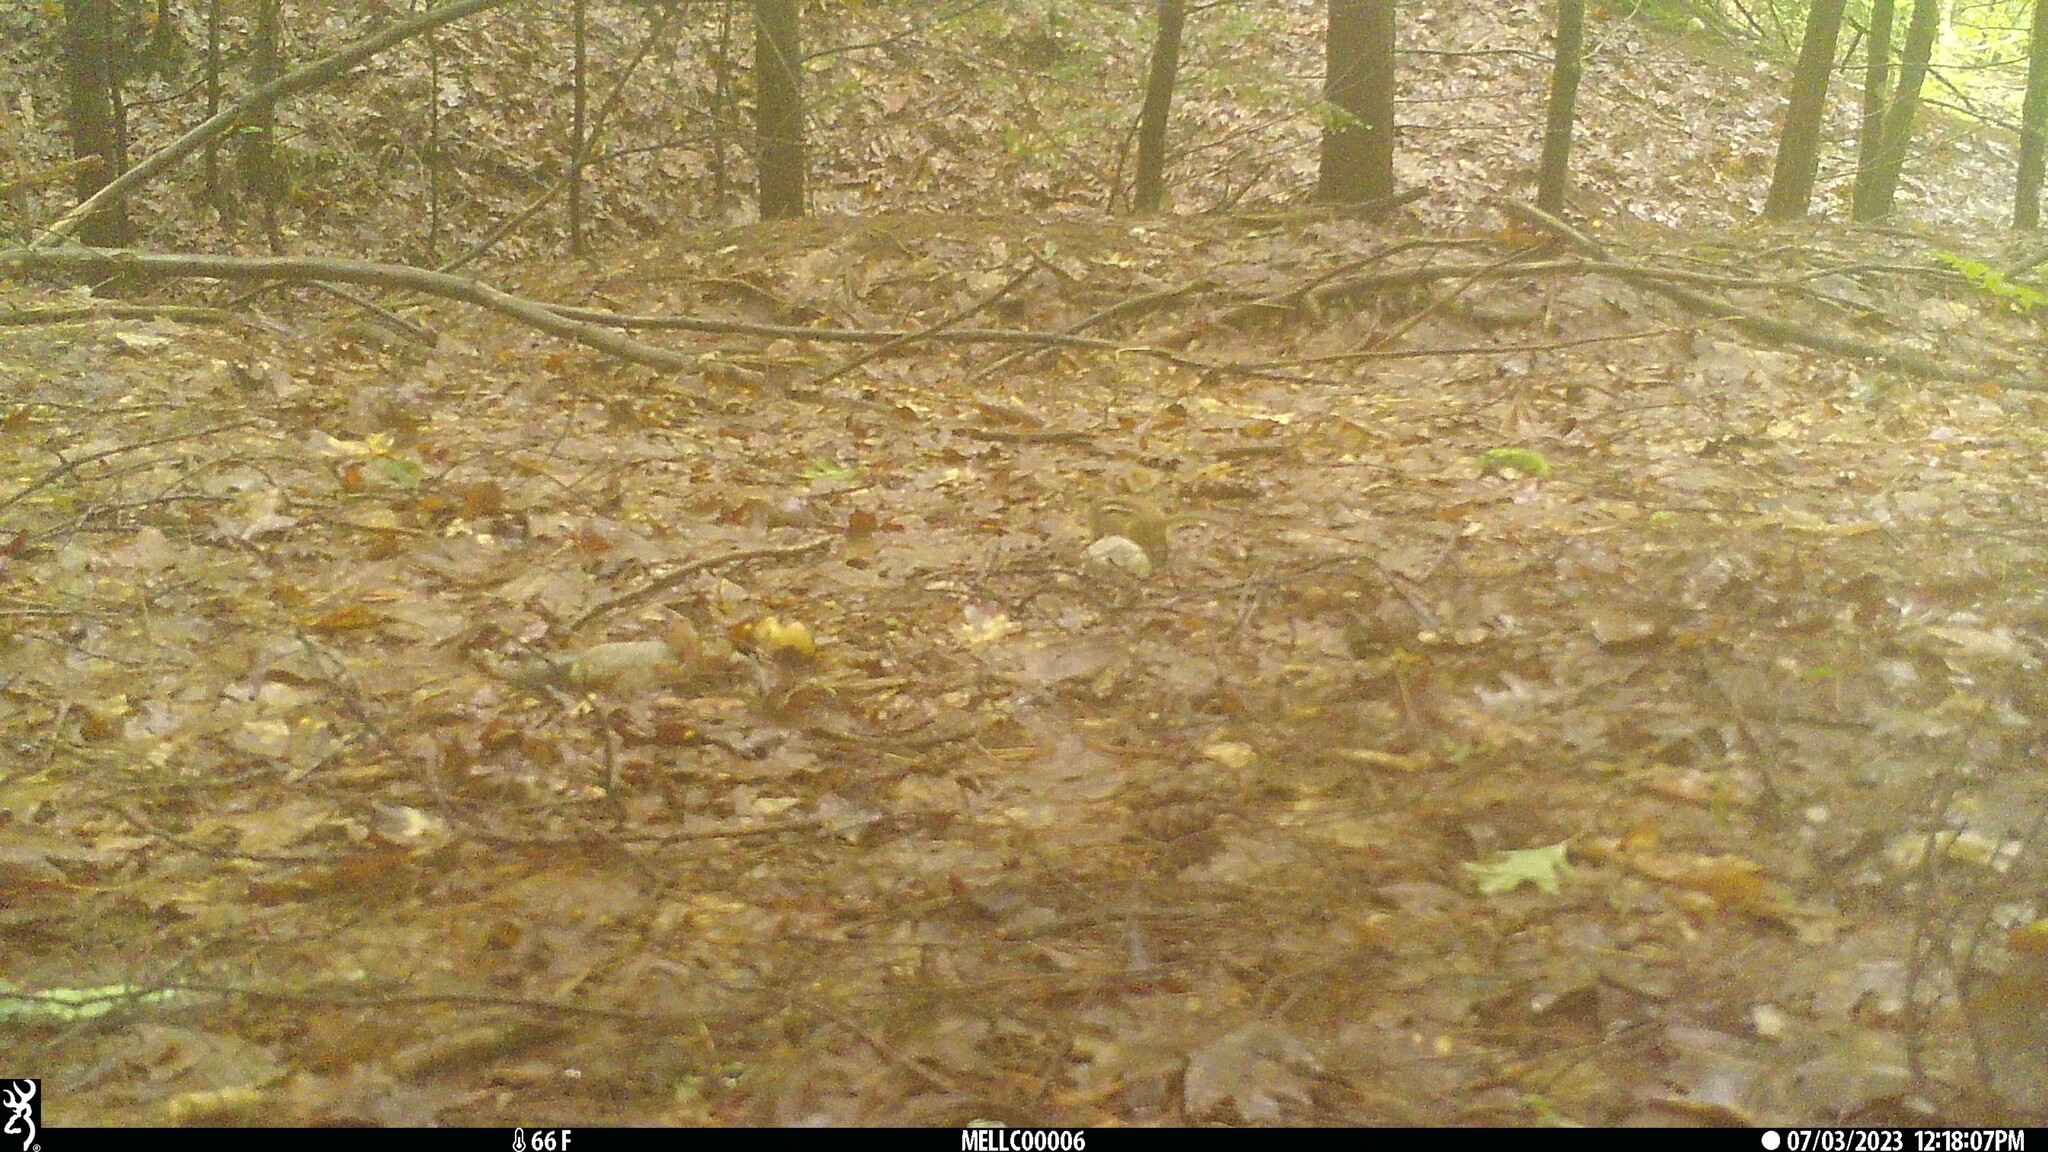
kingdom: Animalia
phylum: Chordata
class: Mammalia
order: Rodentia
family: Sciuridae
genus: Tamias
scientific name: Tamias striatus
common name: Eastern chipmunk
